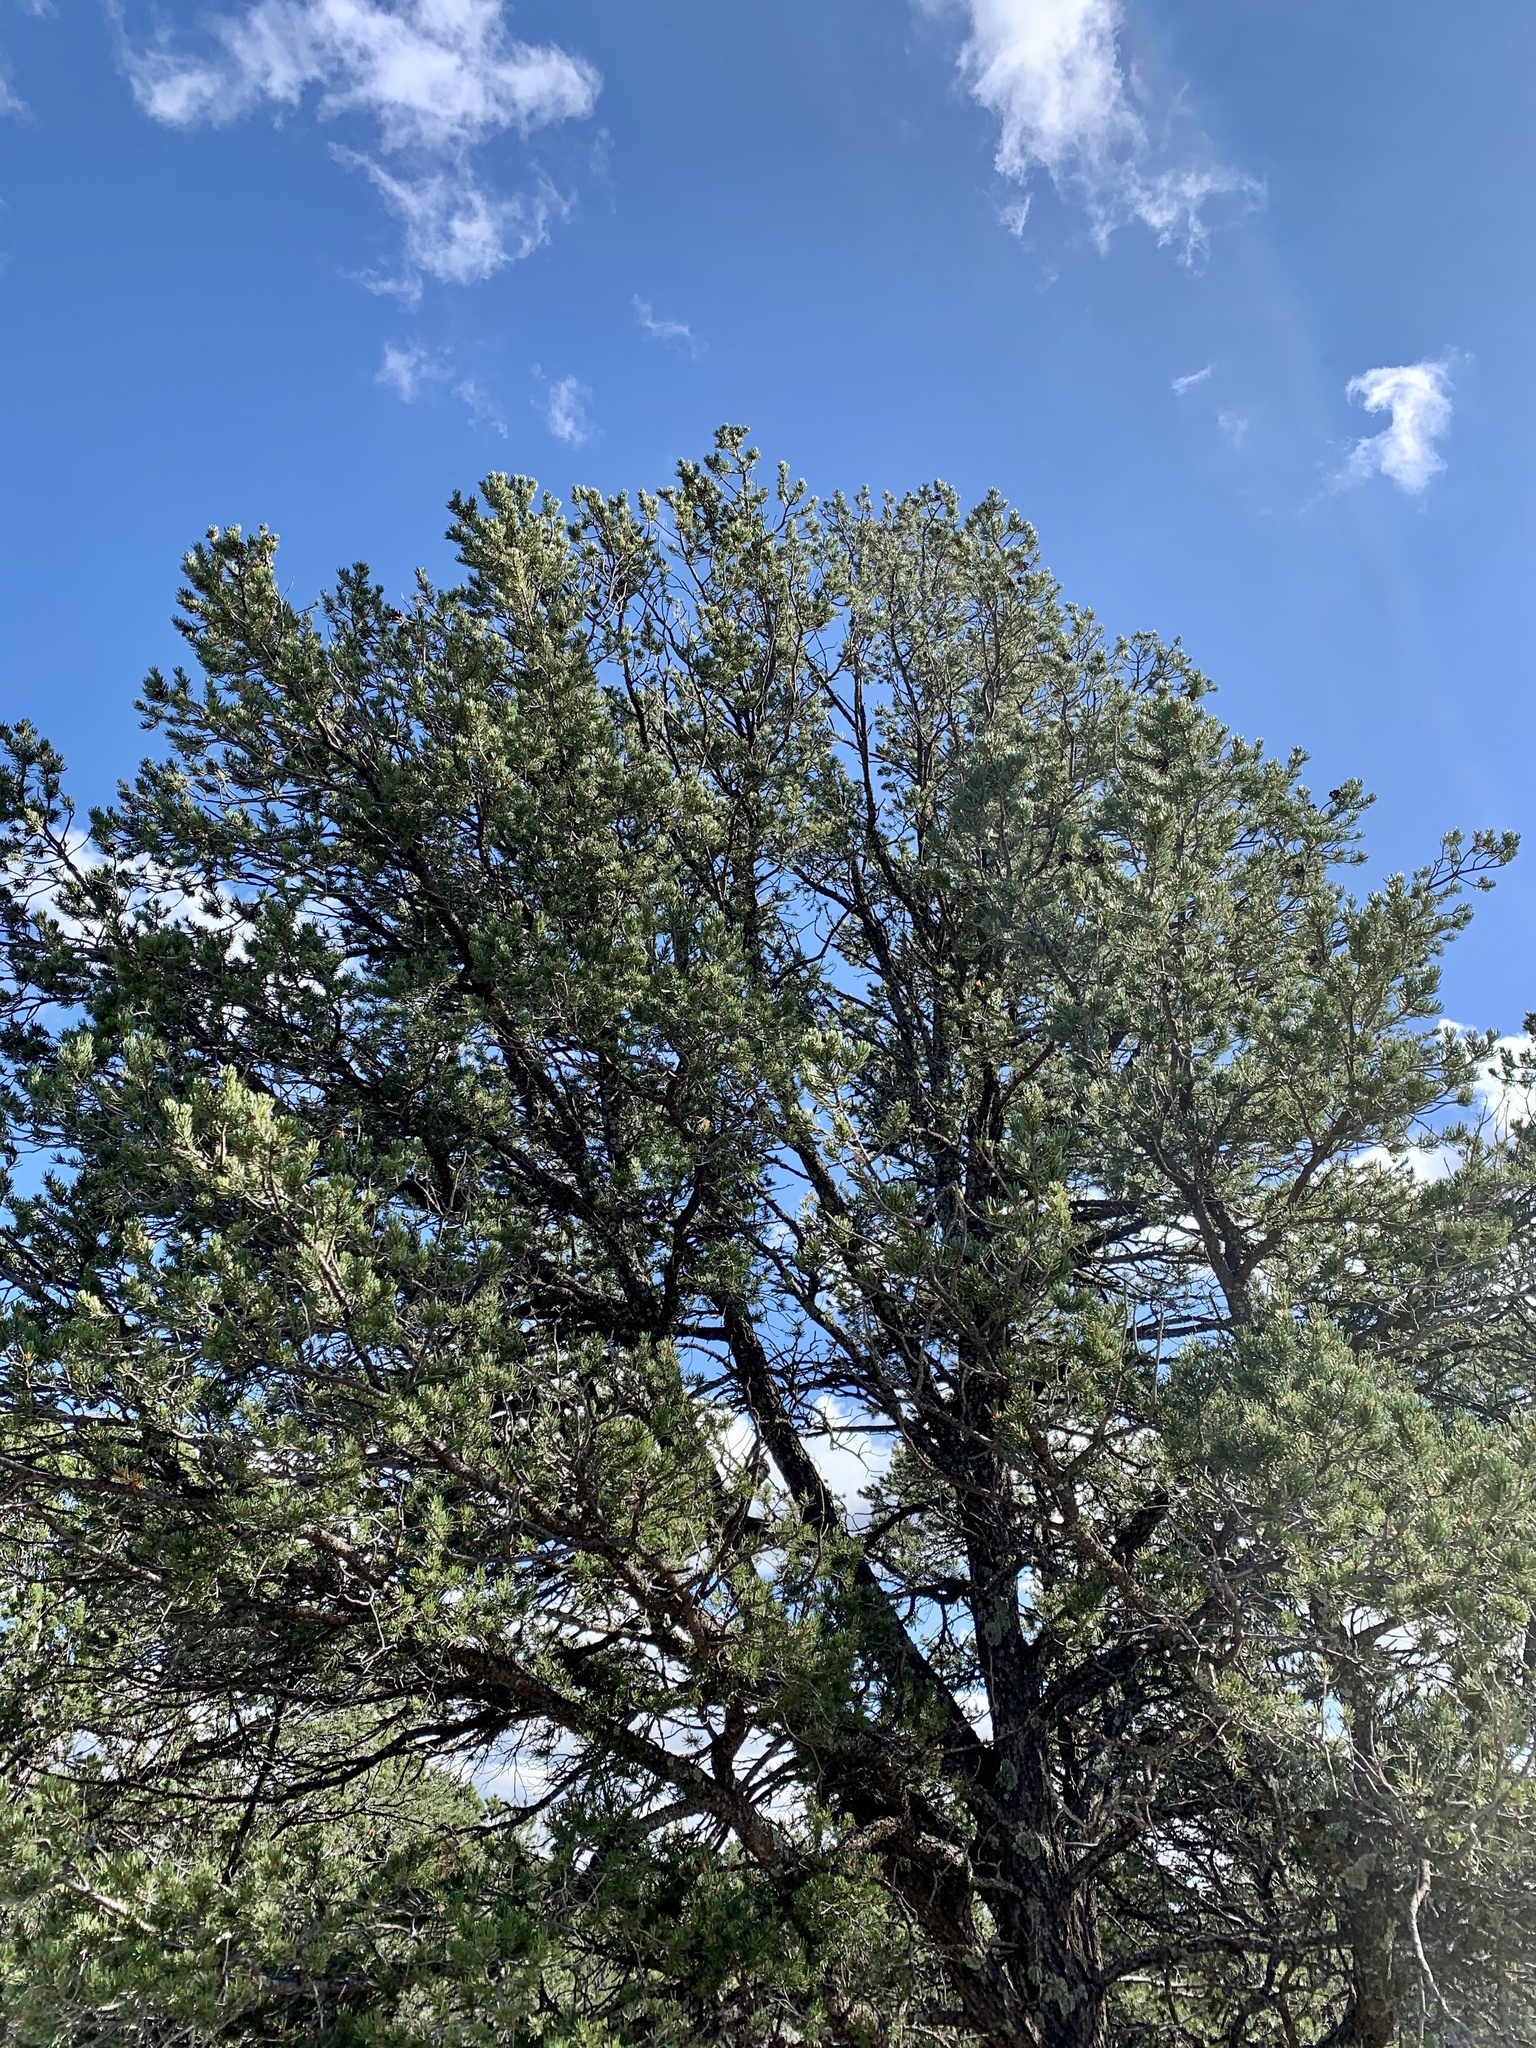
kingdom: Plantae
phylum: Tracheophyta
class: Pinopsida
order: Pinales
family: Pinaceae
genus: Pinus
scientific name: Pinus edulis
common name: Colorado pinyon
